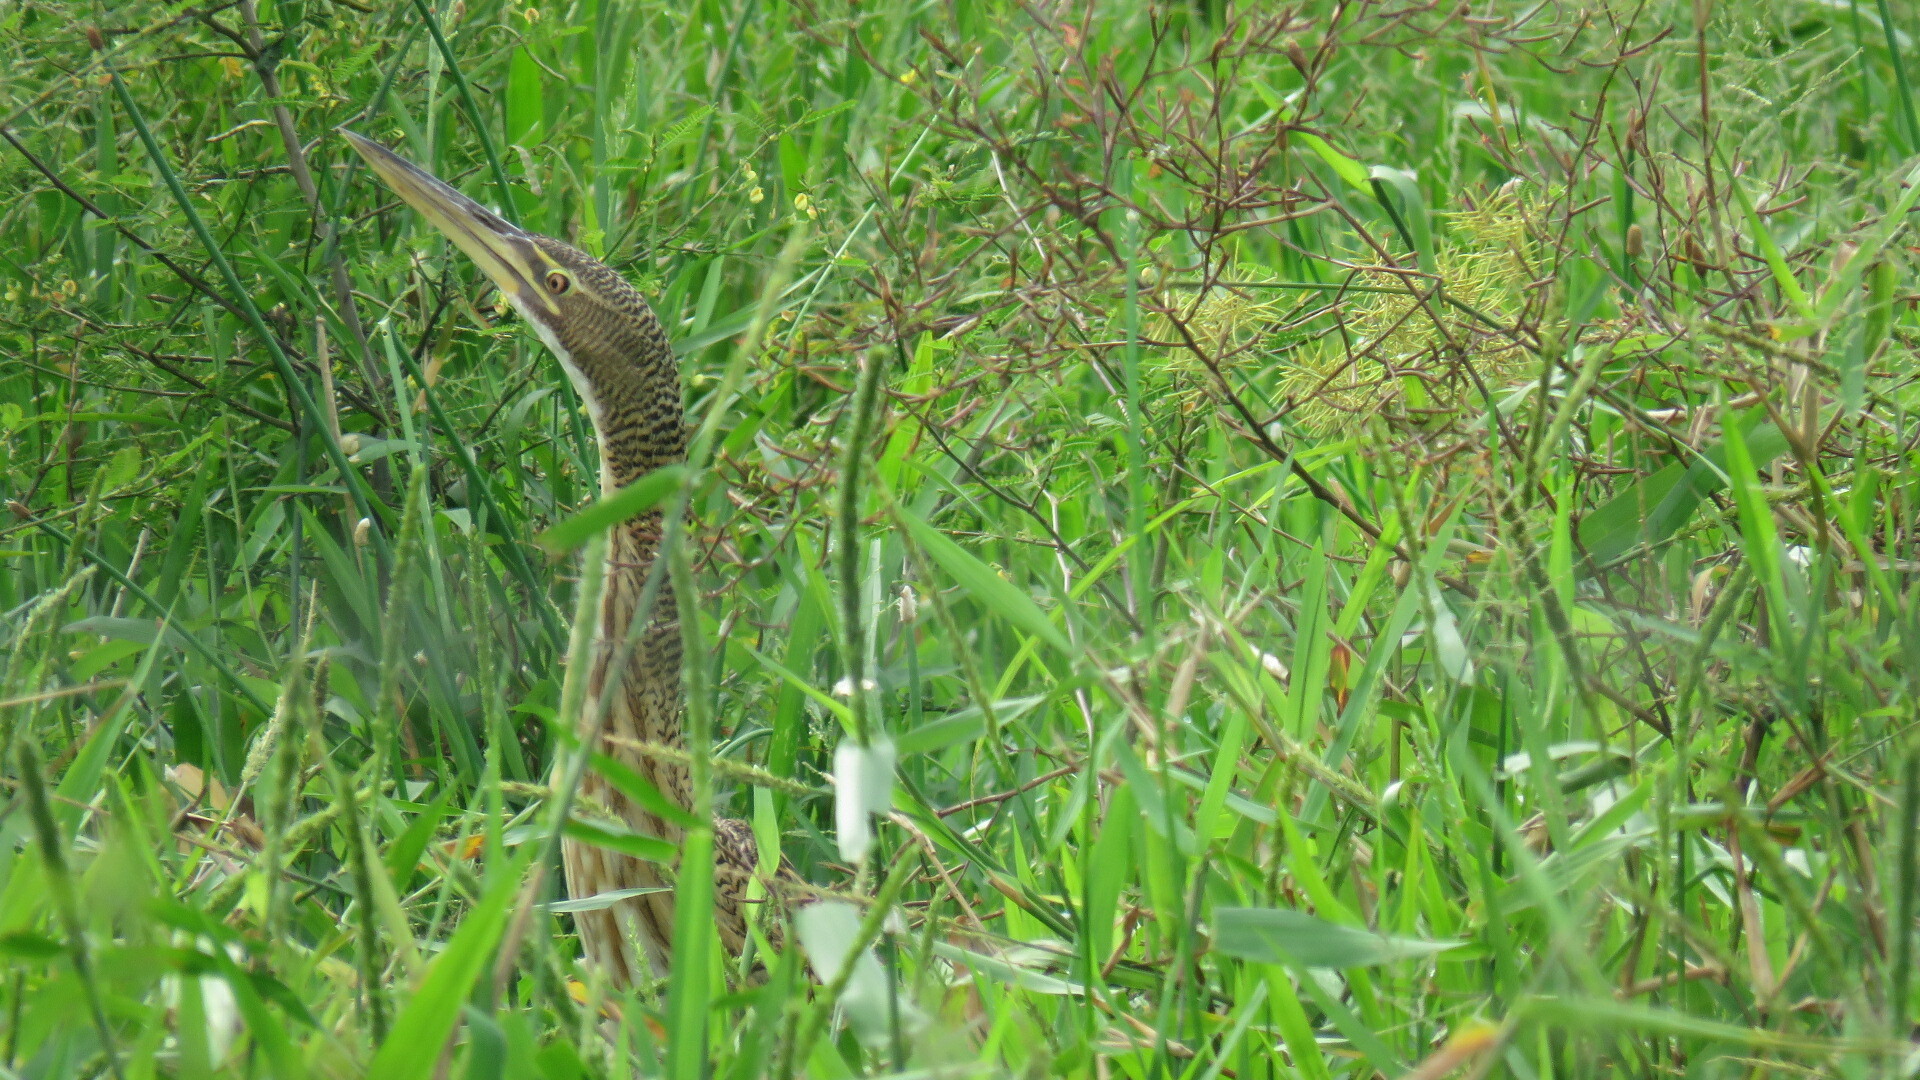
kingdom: Animalia
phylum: Chordata
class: Aves
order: Pelecaniformes
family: Ardeidae
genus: Botaurus
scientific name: Botaurus pinnatus
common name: Pinnated bittern
